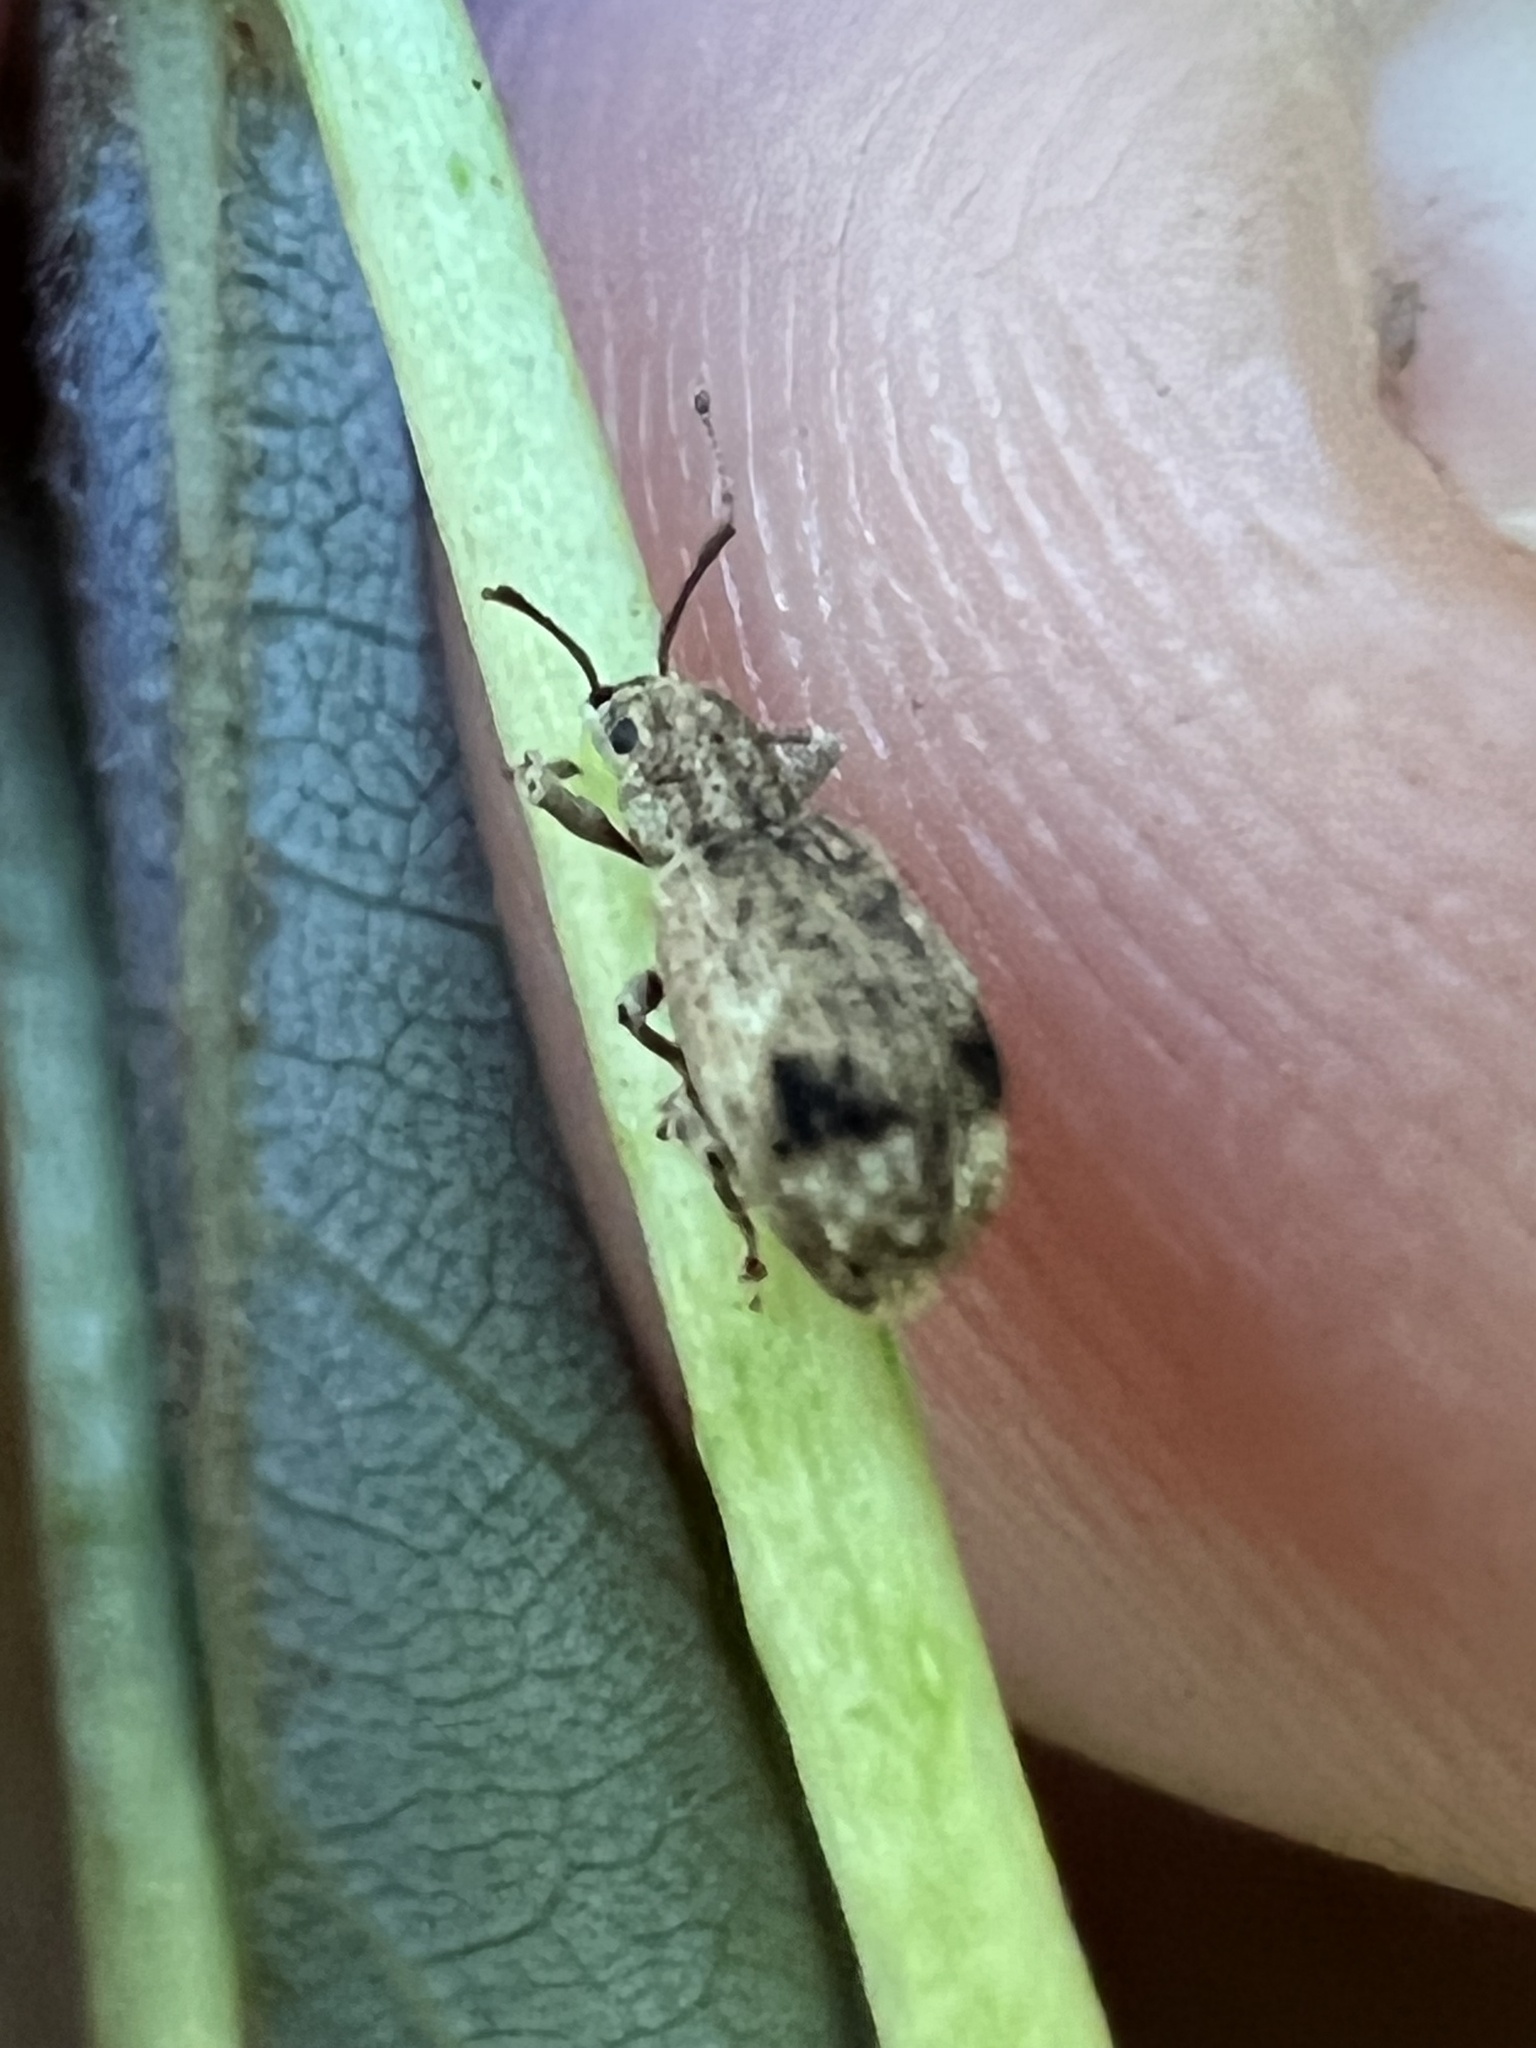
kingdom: Animalia
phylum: Arthropoda
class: Insecta
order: Coleoptera
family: Curculionidae
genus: Pseudoedophrys
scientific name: Pseudoedophrys hilleri
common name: Weevil
